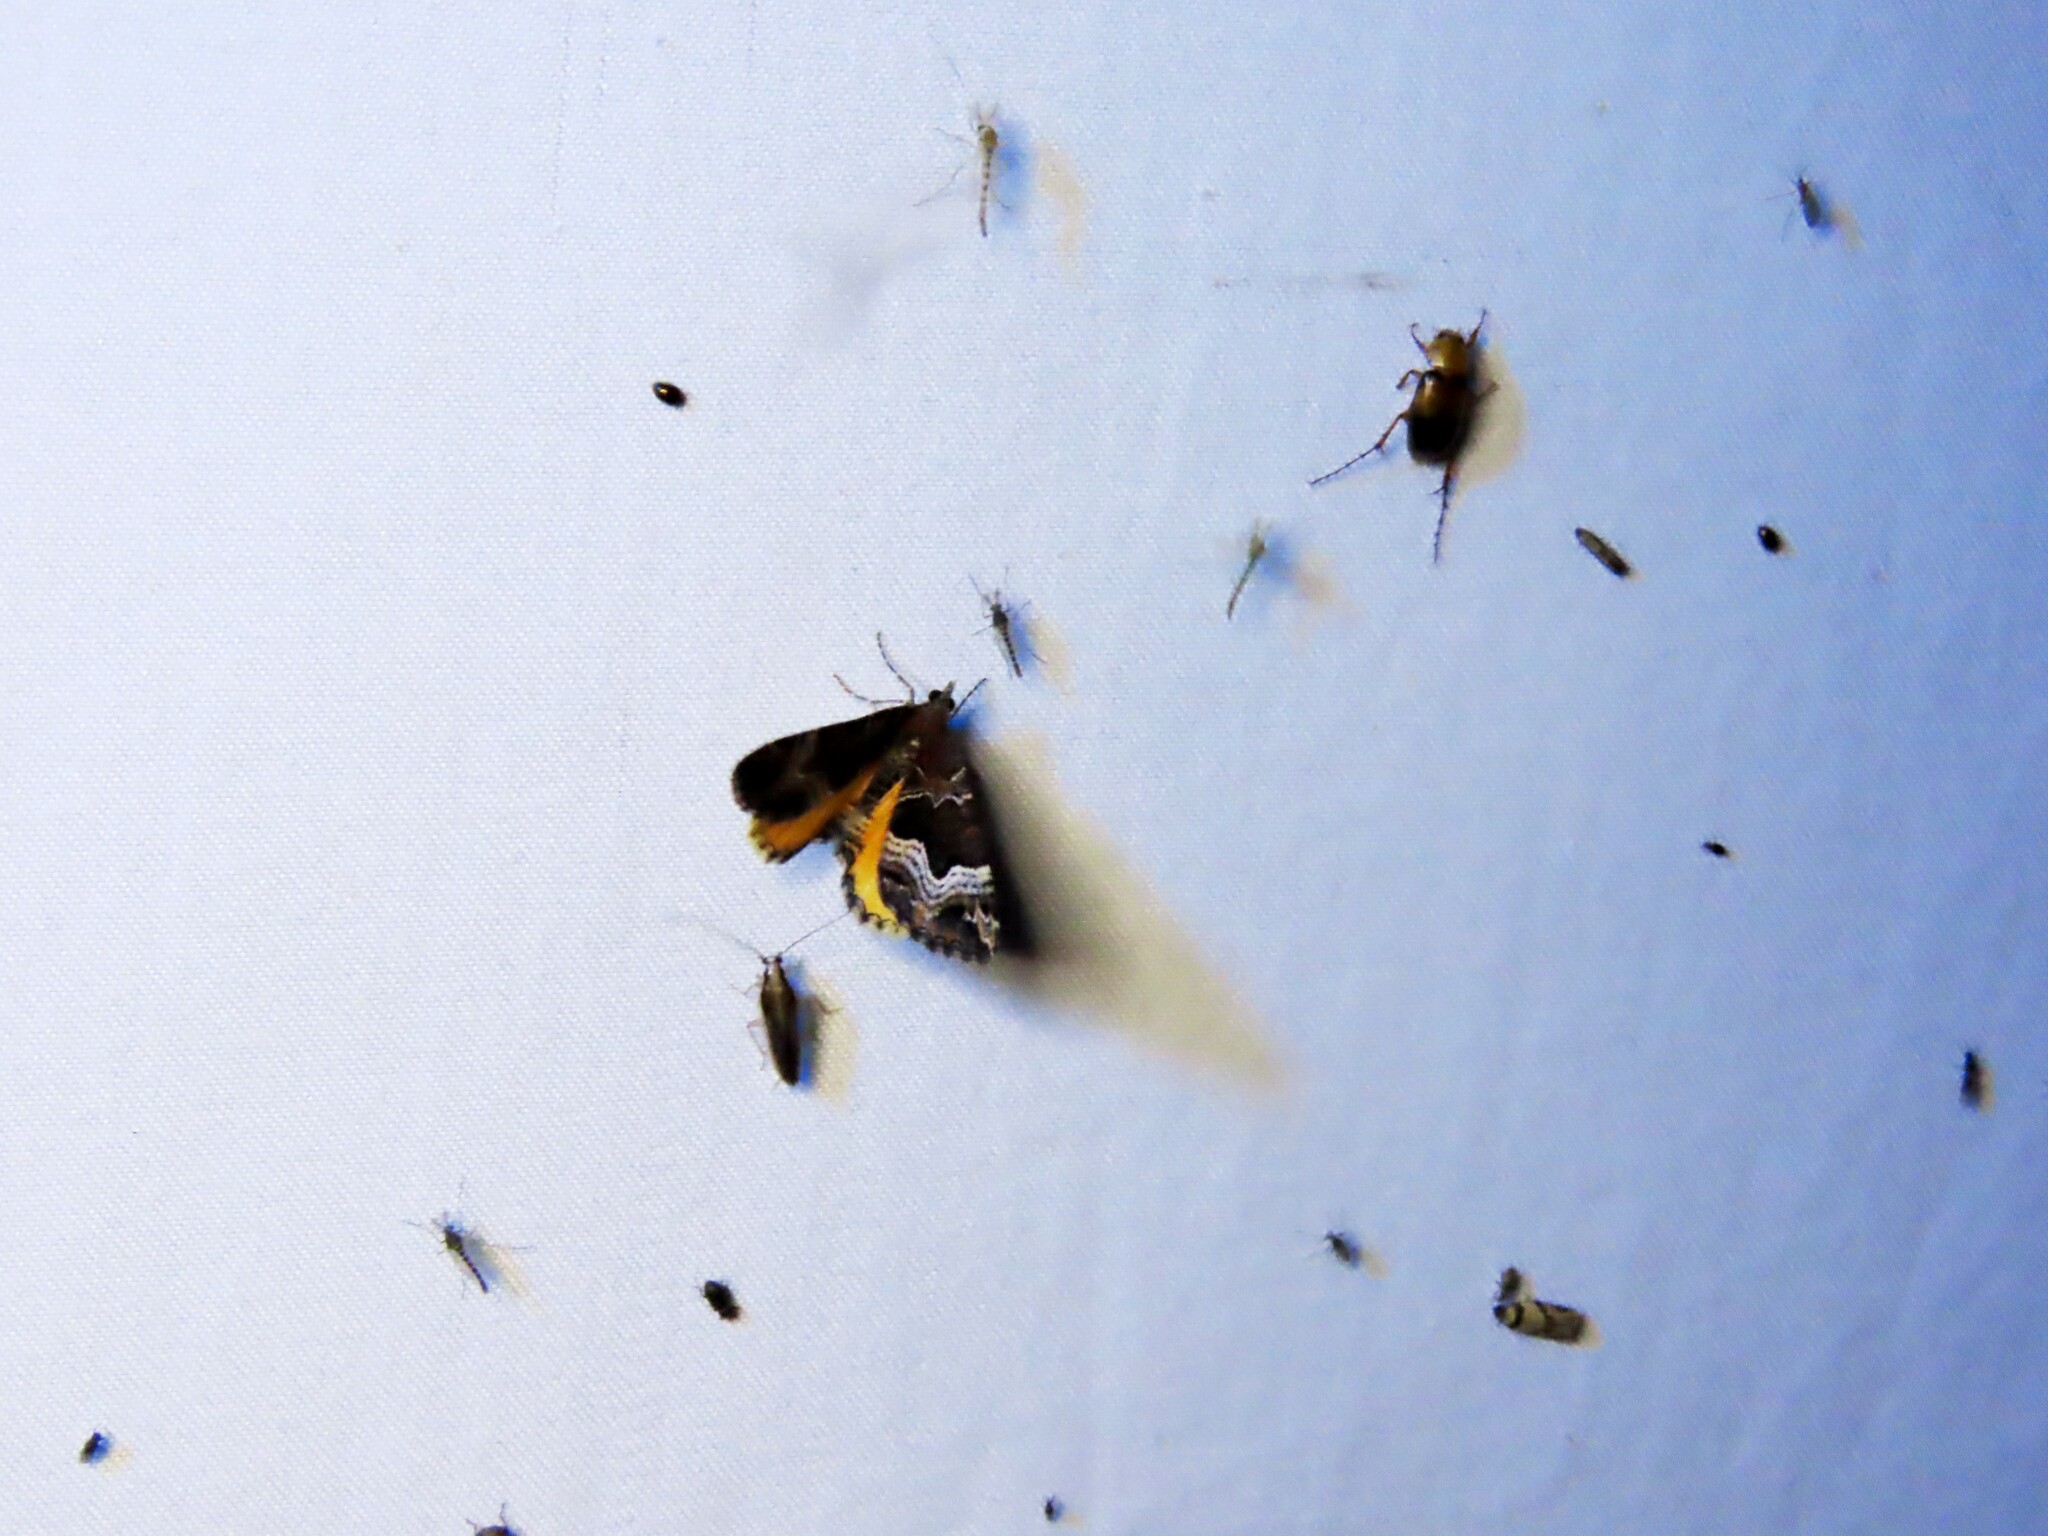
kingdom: Animalia
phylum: Arthropoda
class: Insecta
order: Lepidoptera
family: Geometridae
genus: Chrysolarentia
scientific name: Chrysolarentia lucidulata
